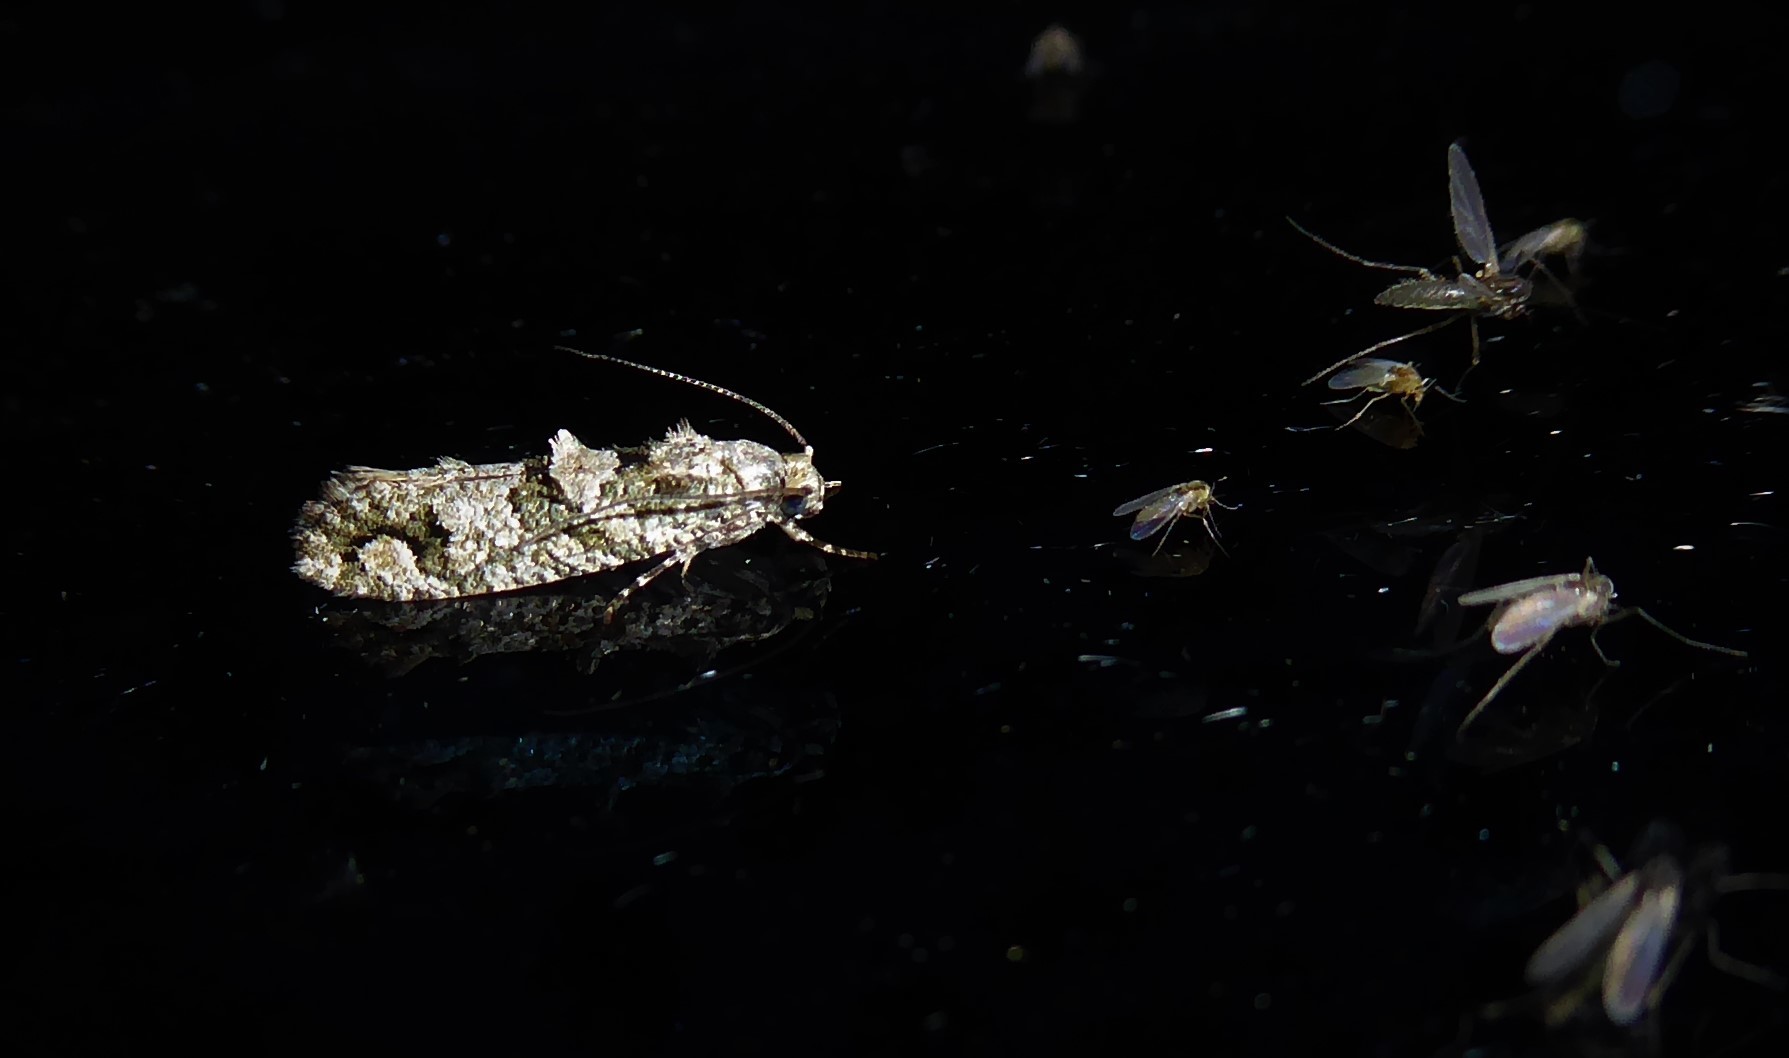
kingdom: Animalia
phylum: Arthropoda
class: Insecta
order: Lepidoptera
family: Tineidae
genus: Lysiphragma
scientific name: Lysiphragma howesii
